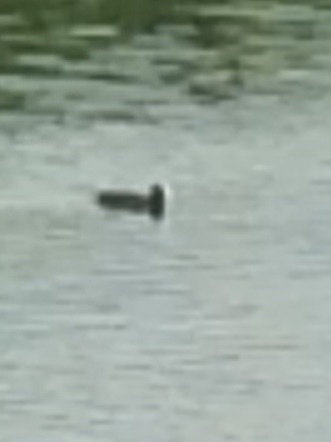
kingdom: Animalia
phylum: Chordata
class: Aves
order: Gruiformes
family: Rallidae
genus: Fulica
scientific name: Fulica atra
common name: Eurasian coot
